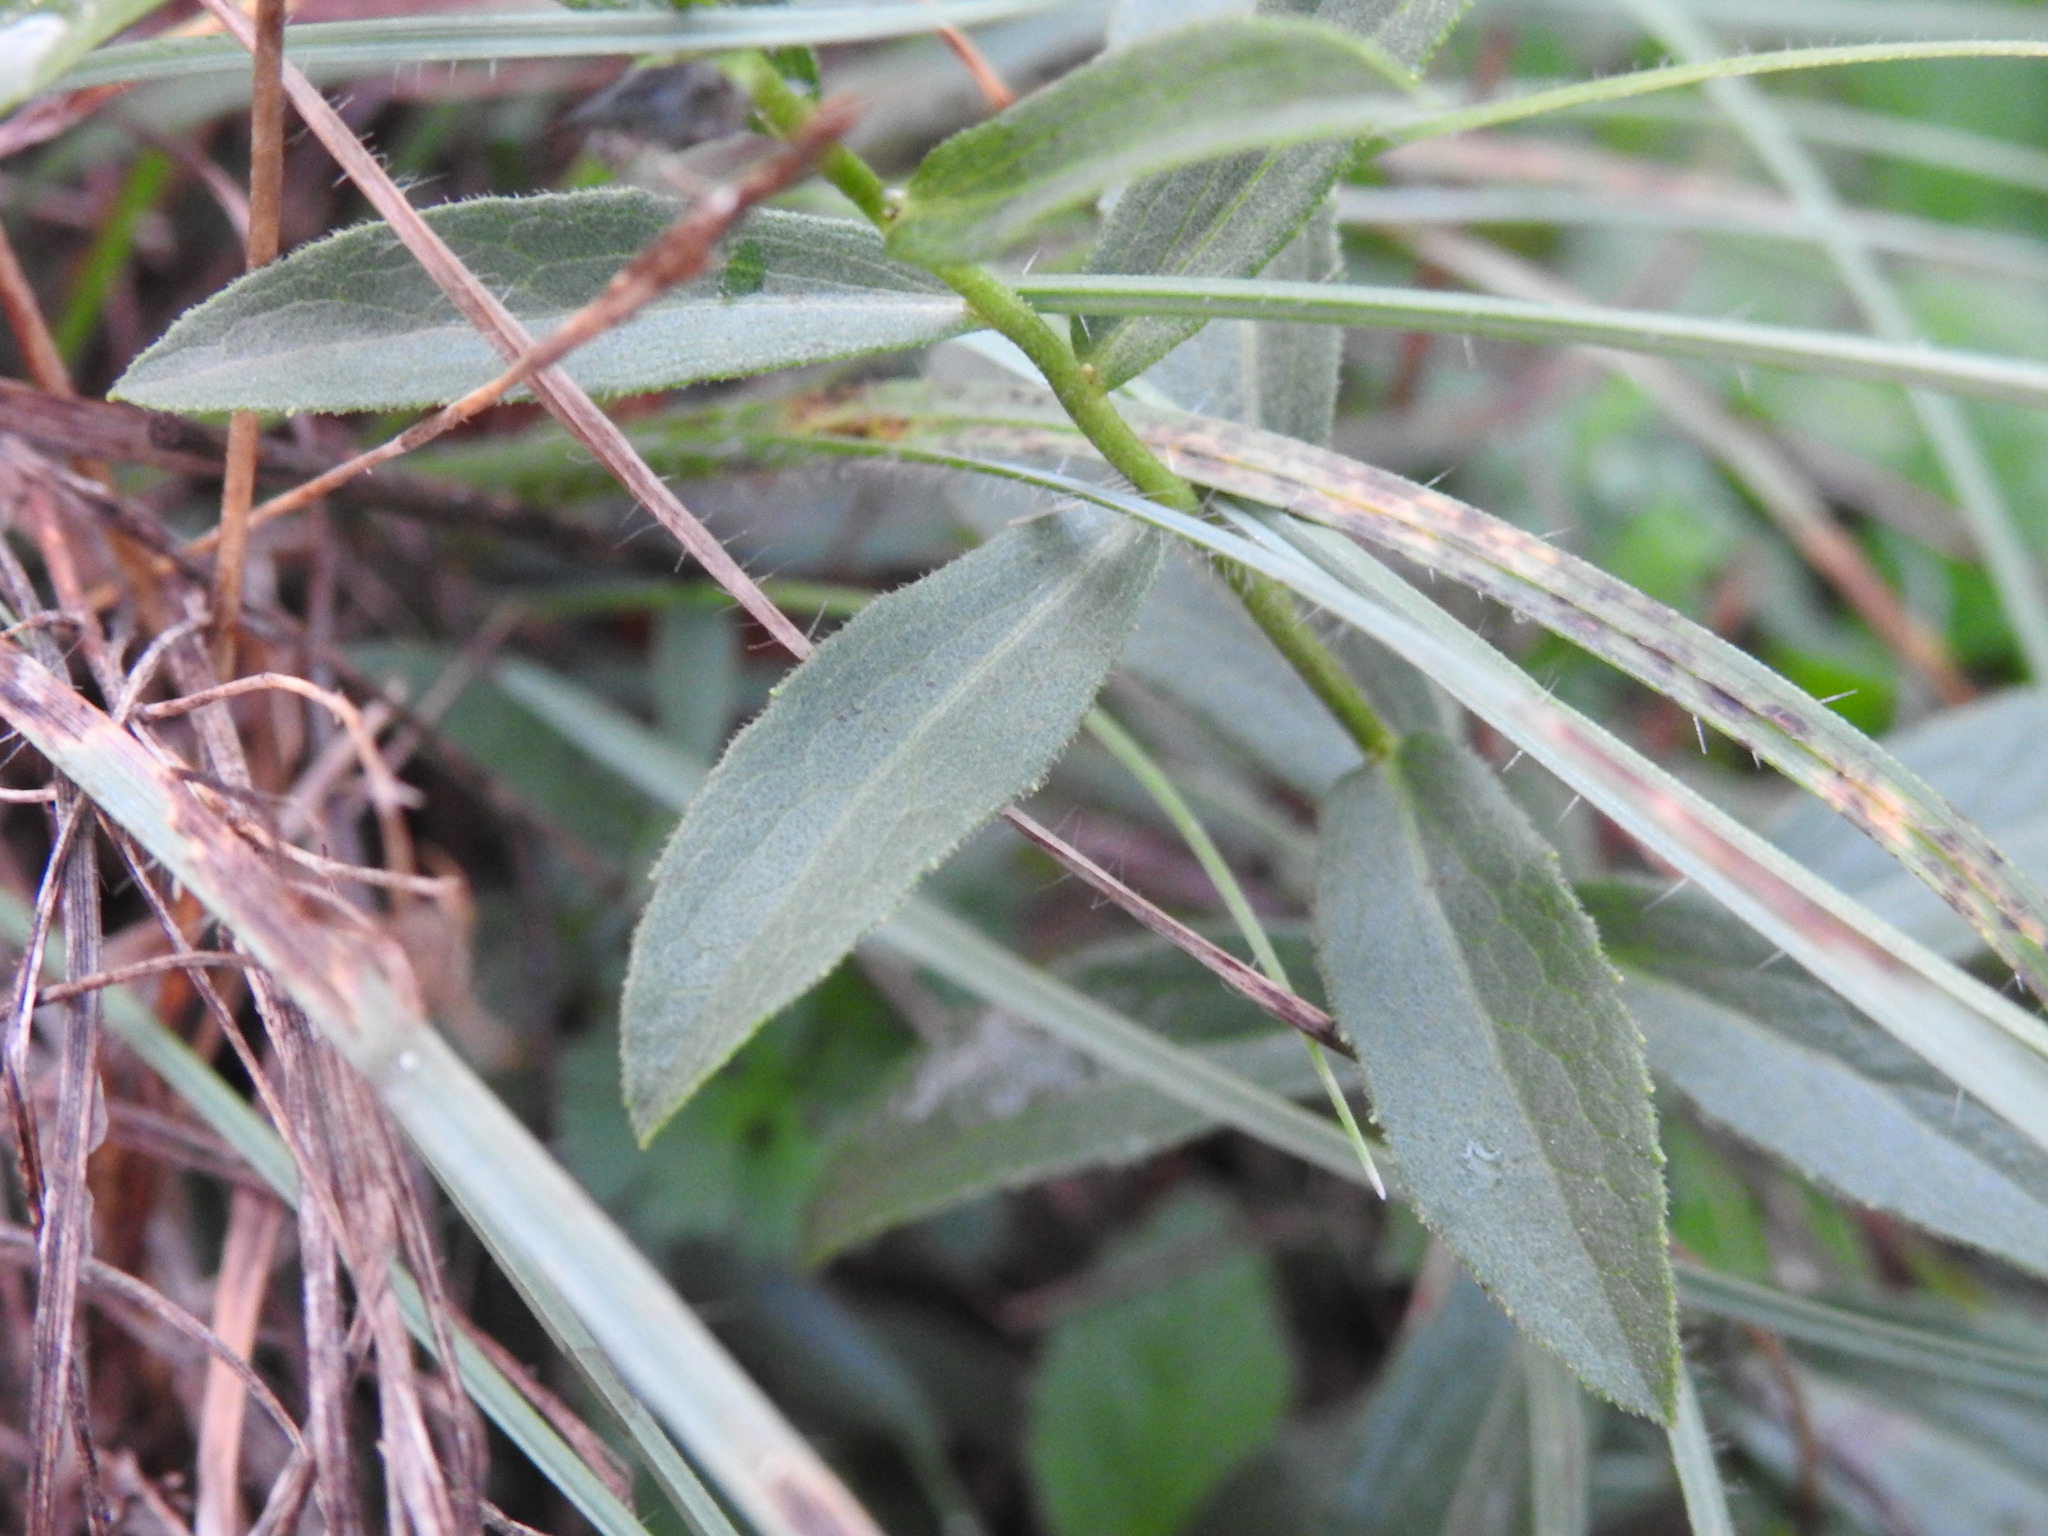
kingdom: Plantae
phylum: Tracheophyta
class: Magnoliopsida
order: Asterales
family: Asteraceae
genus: Pentanema
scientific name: Pentanema spiraeifolium
